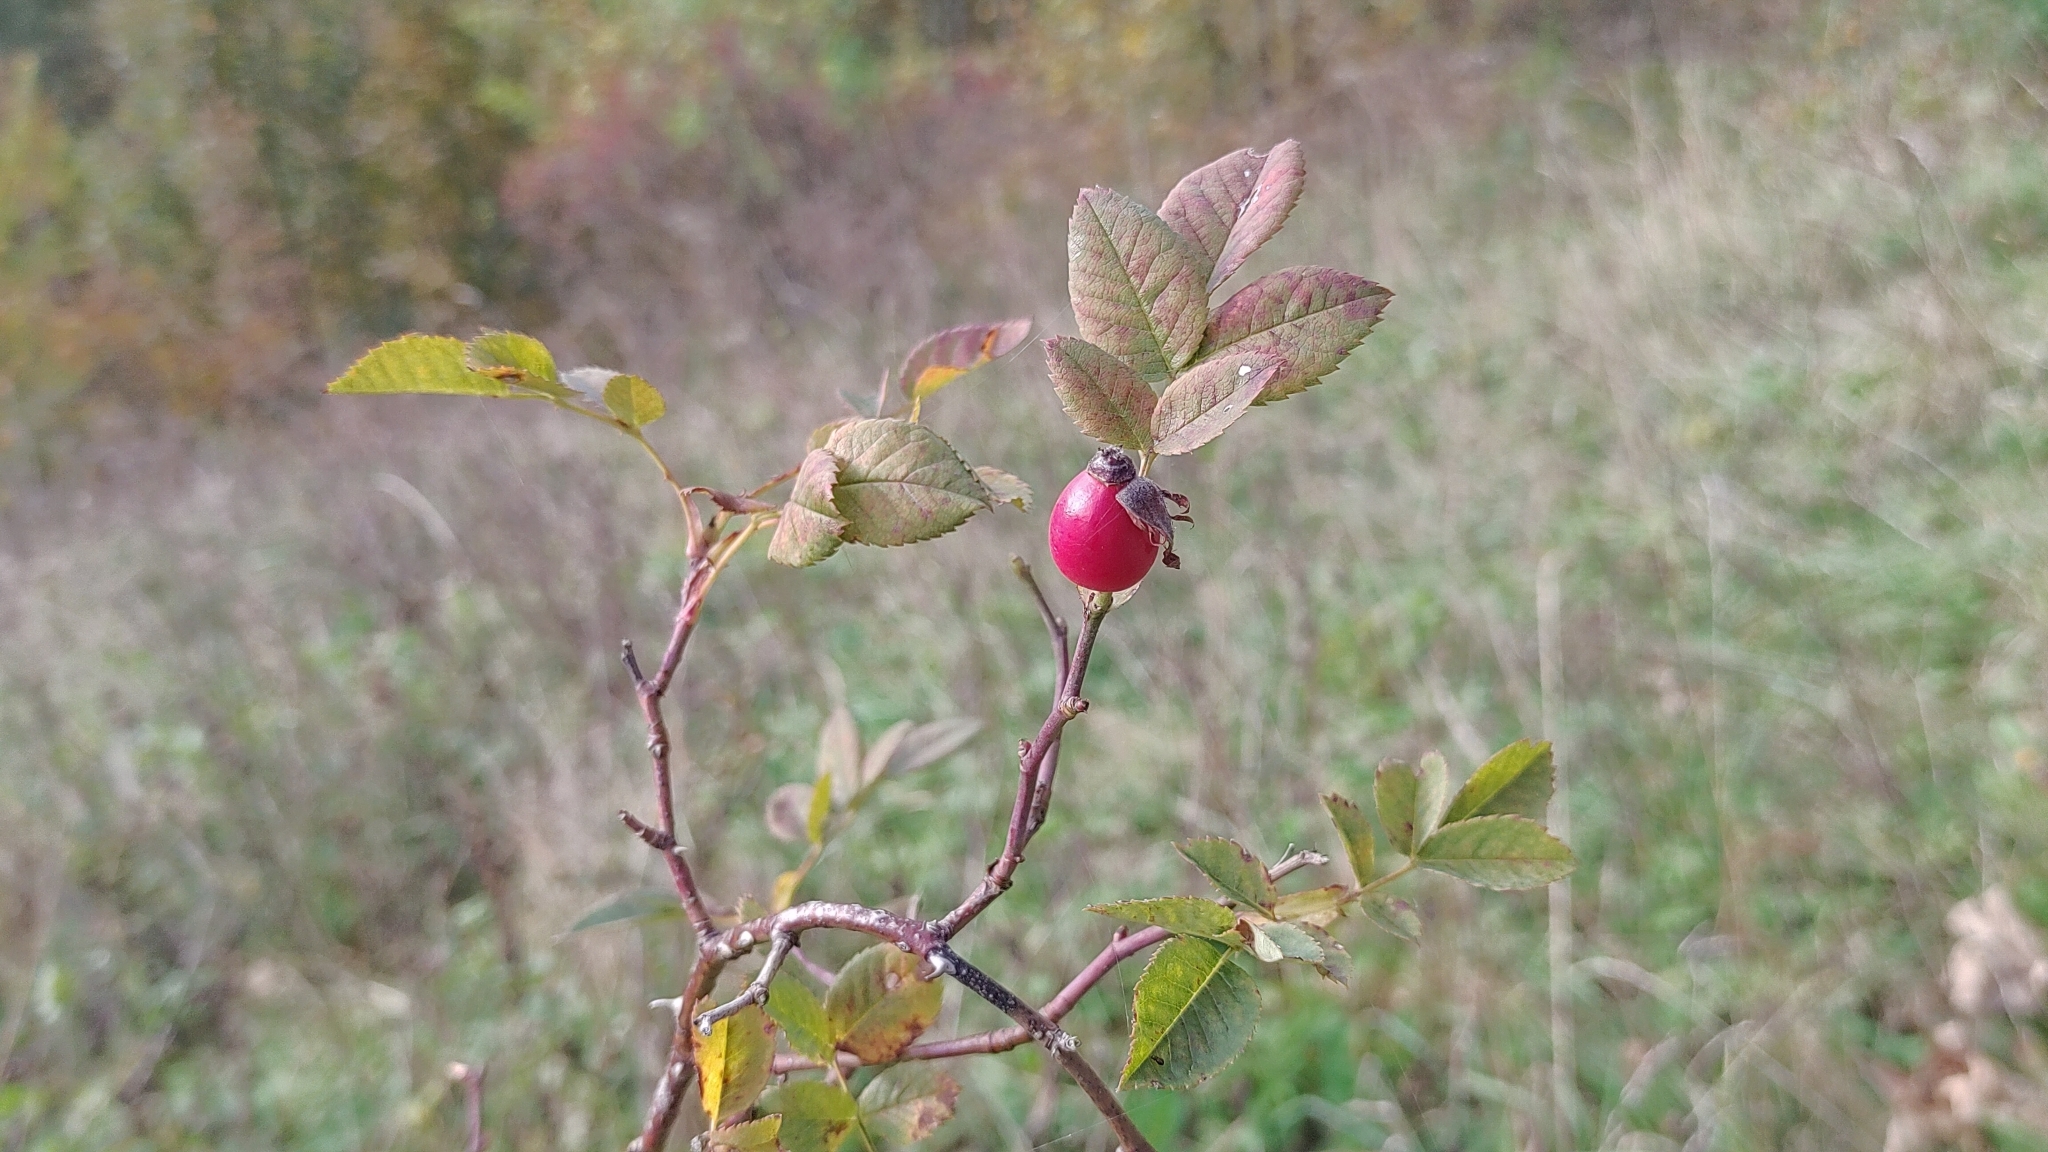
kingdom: Animalia
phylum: Arthropoda
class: Insecta
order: Hymenoptera
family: Cynipidae
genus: Diplolepis
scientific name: Diplolepis rosae
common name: Bedeguar gall
